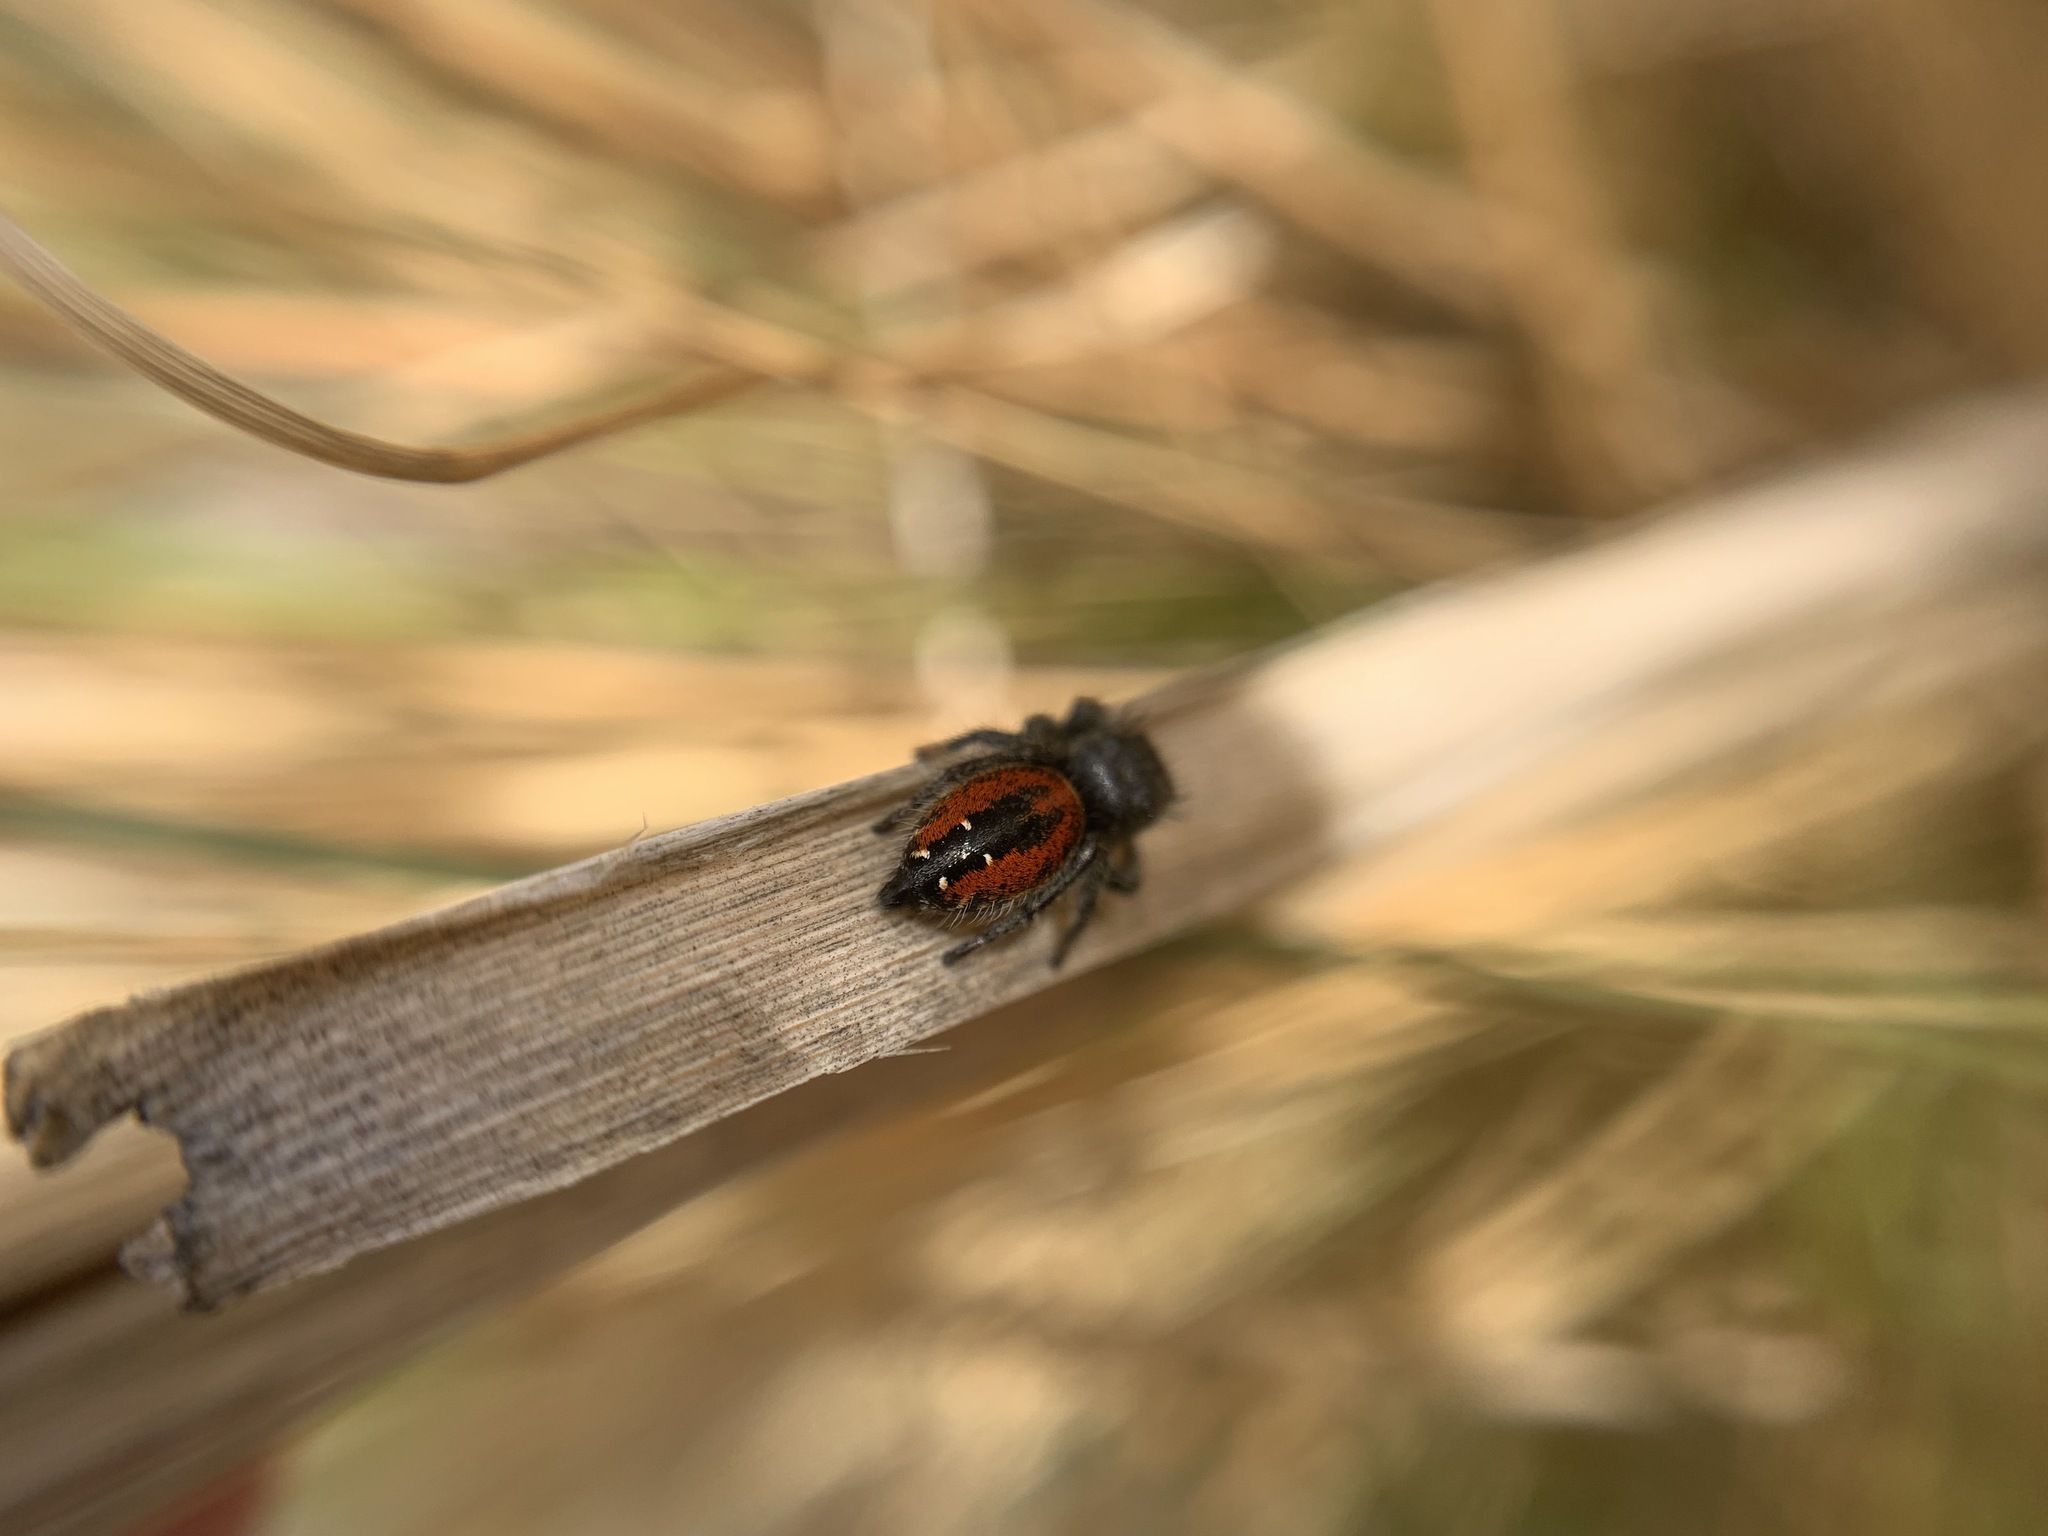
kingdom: Animalia
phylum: Arthropoda
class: Arachnida
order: Araneae
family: Salticidae
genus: Phidippus
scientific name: Phidippus johnsoni
